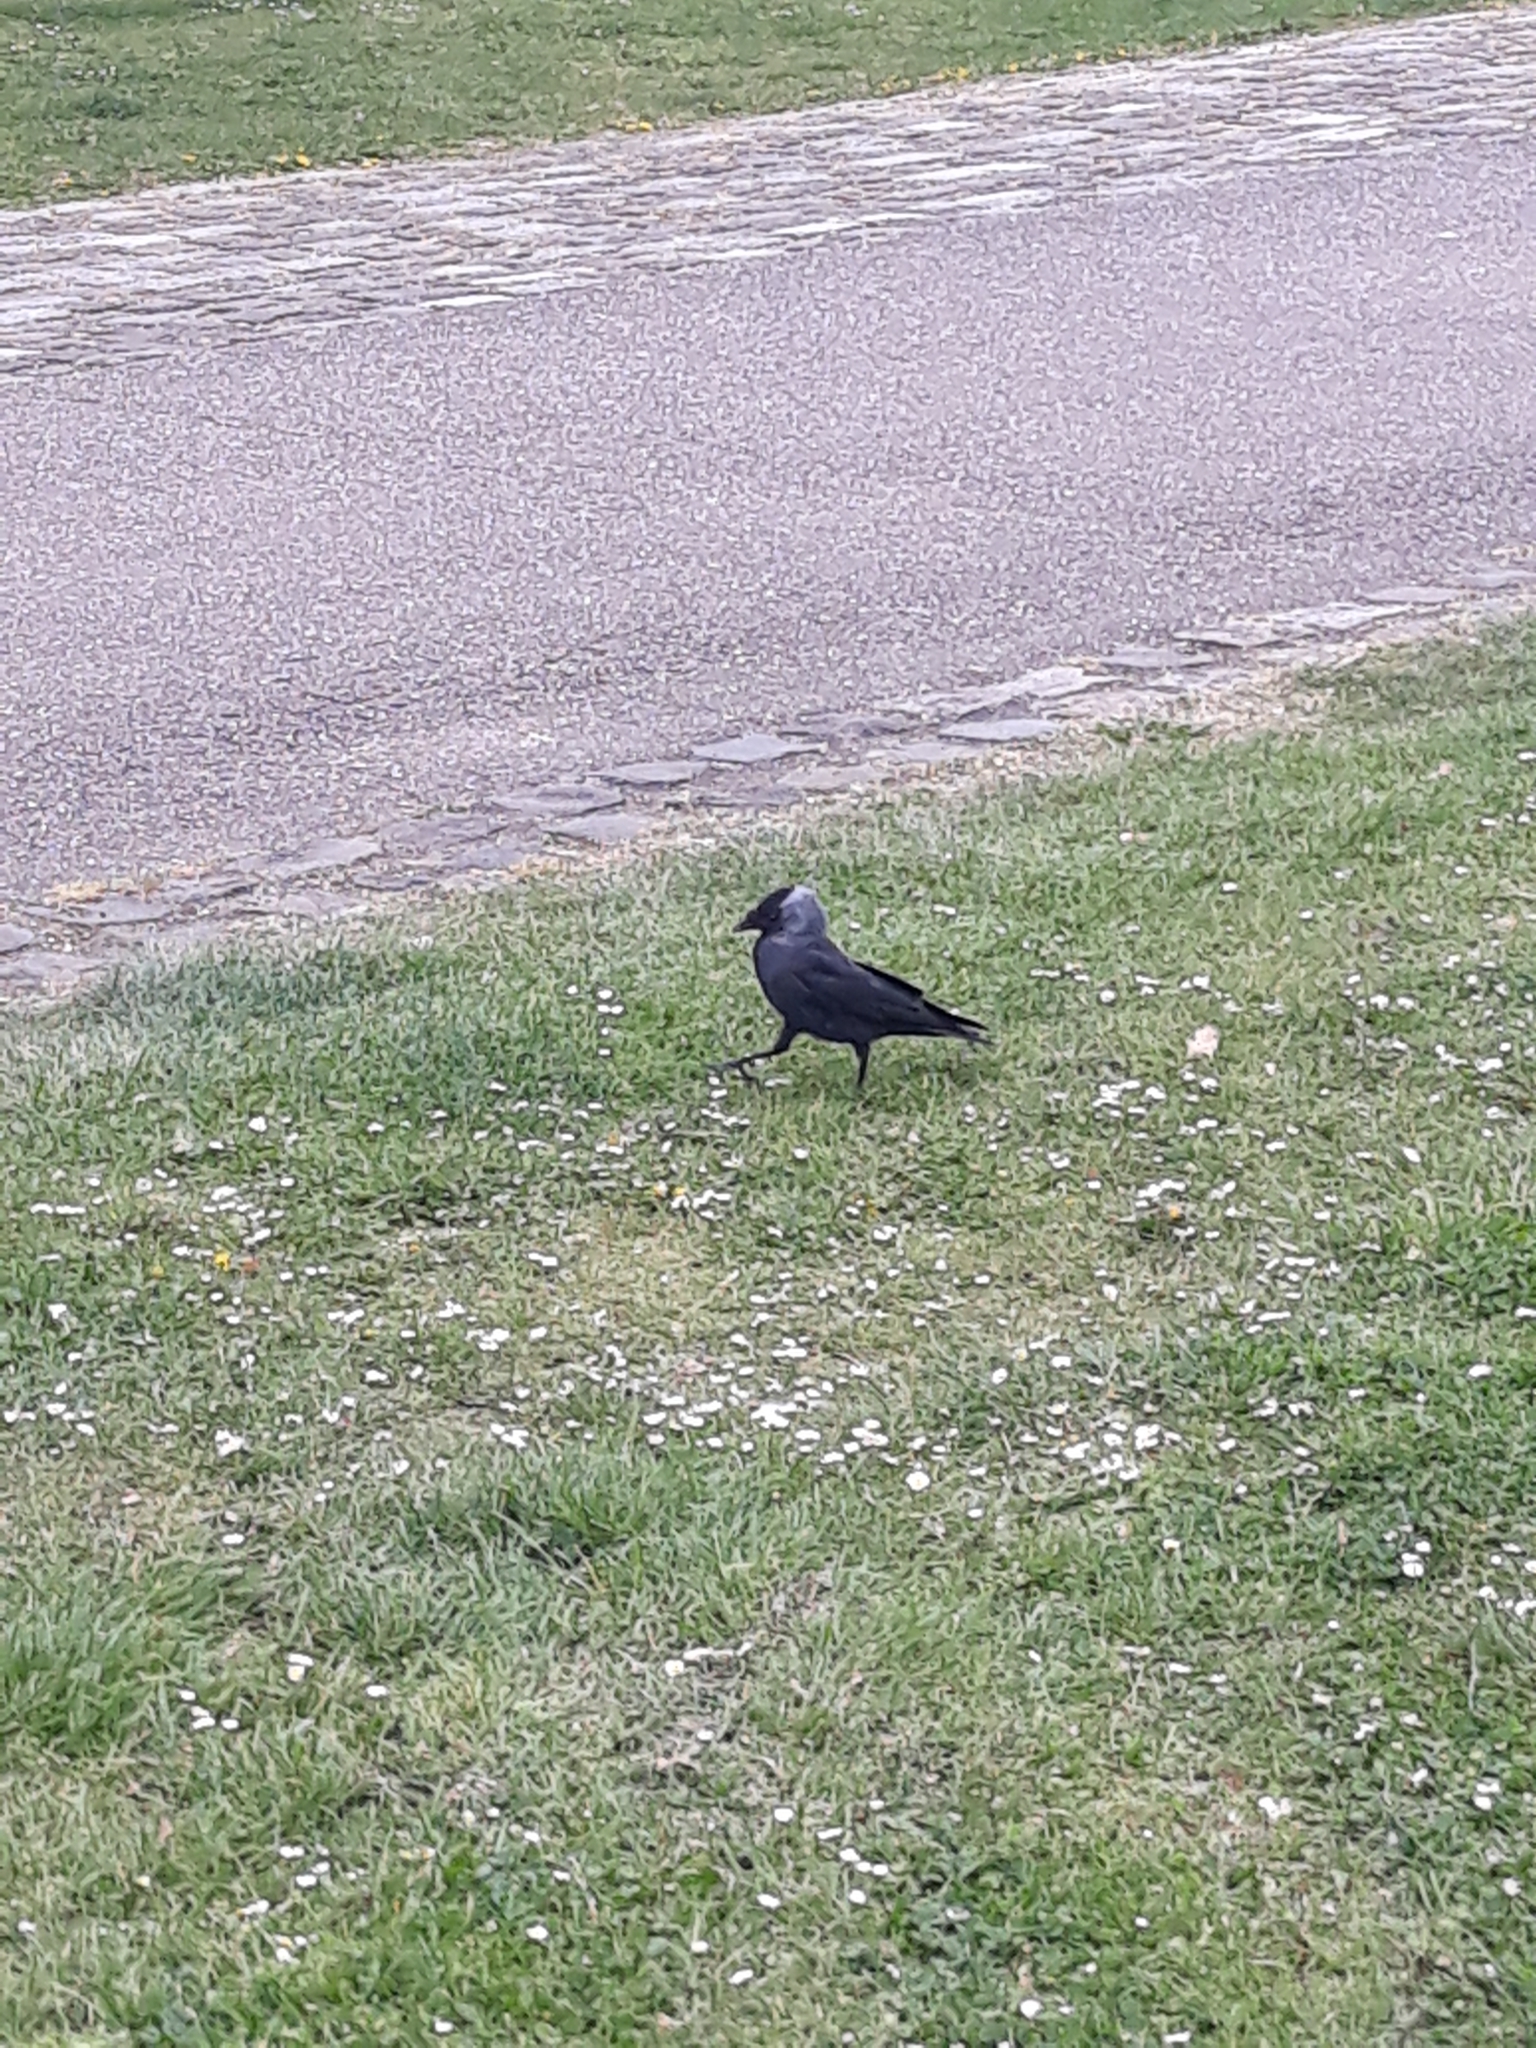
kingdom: Animalia
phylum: Chordata
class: Aves
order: Passeriformes
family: Corvidae
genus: Coloeus
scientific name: Coloeus monedula
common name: Western jackdaw
